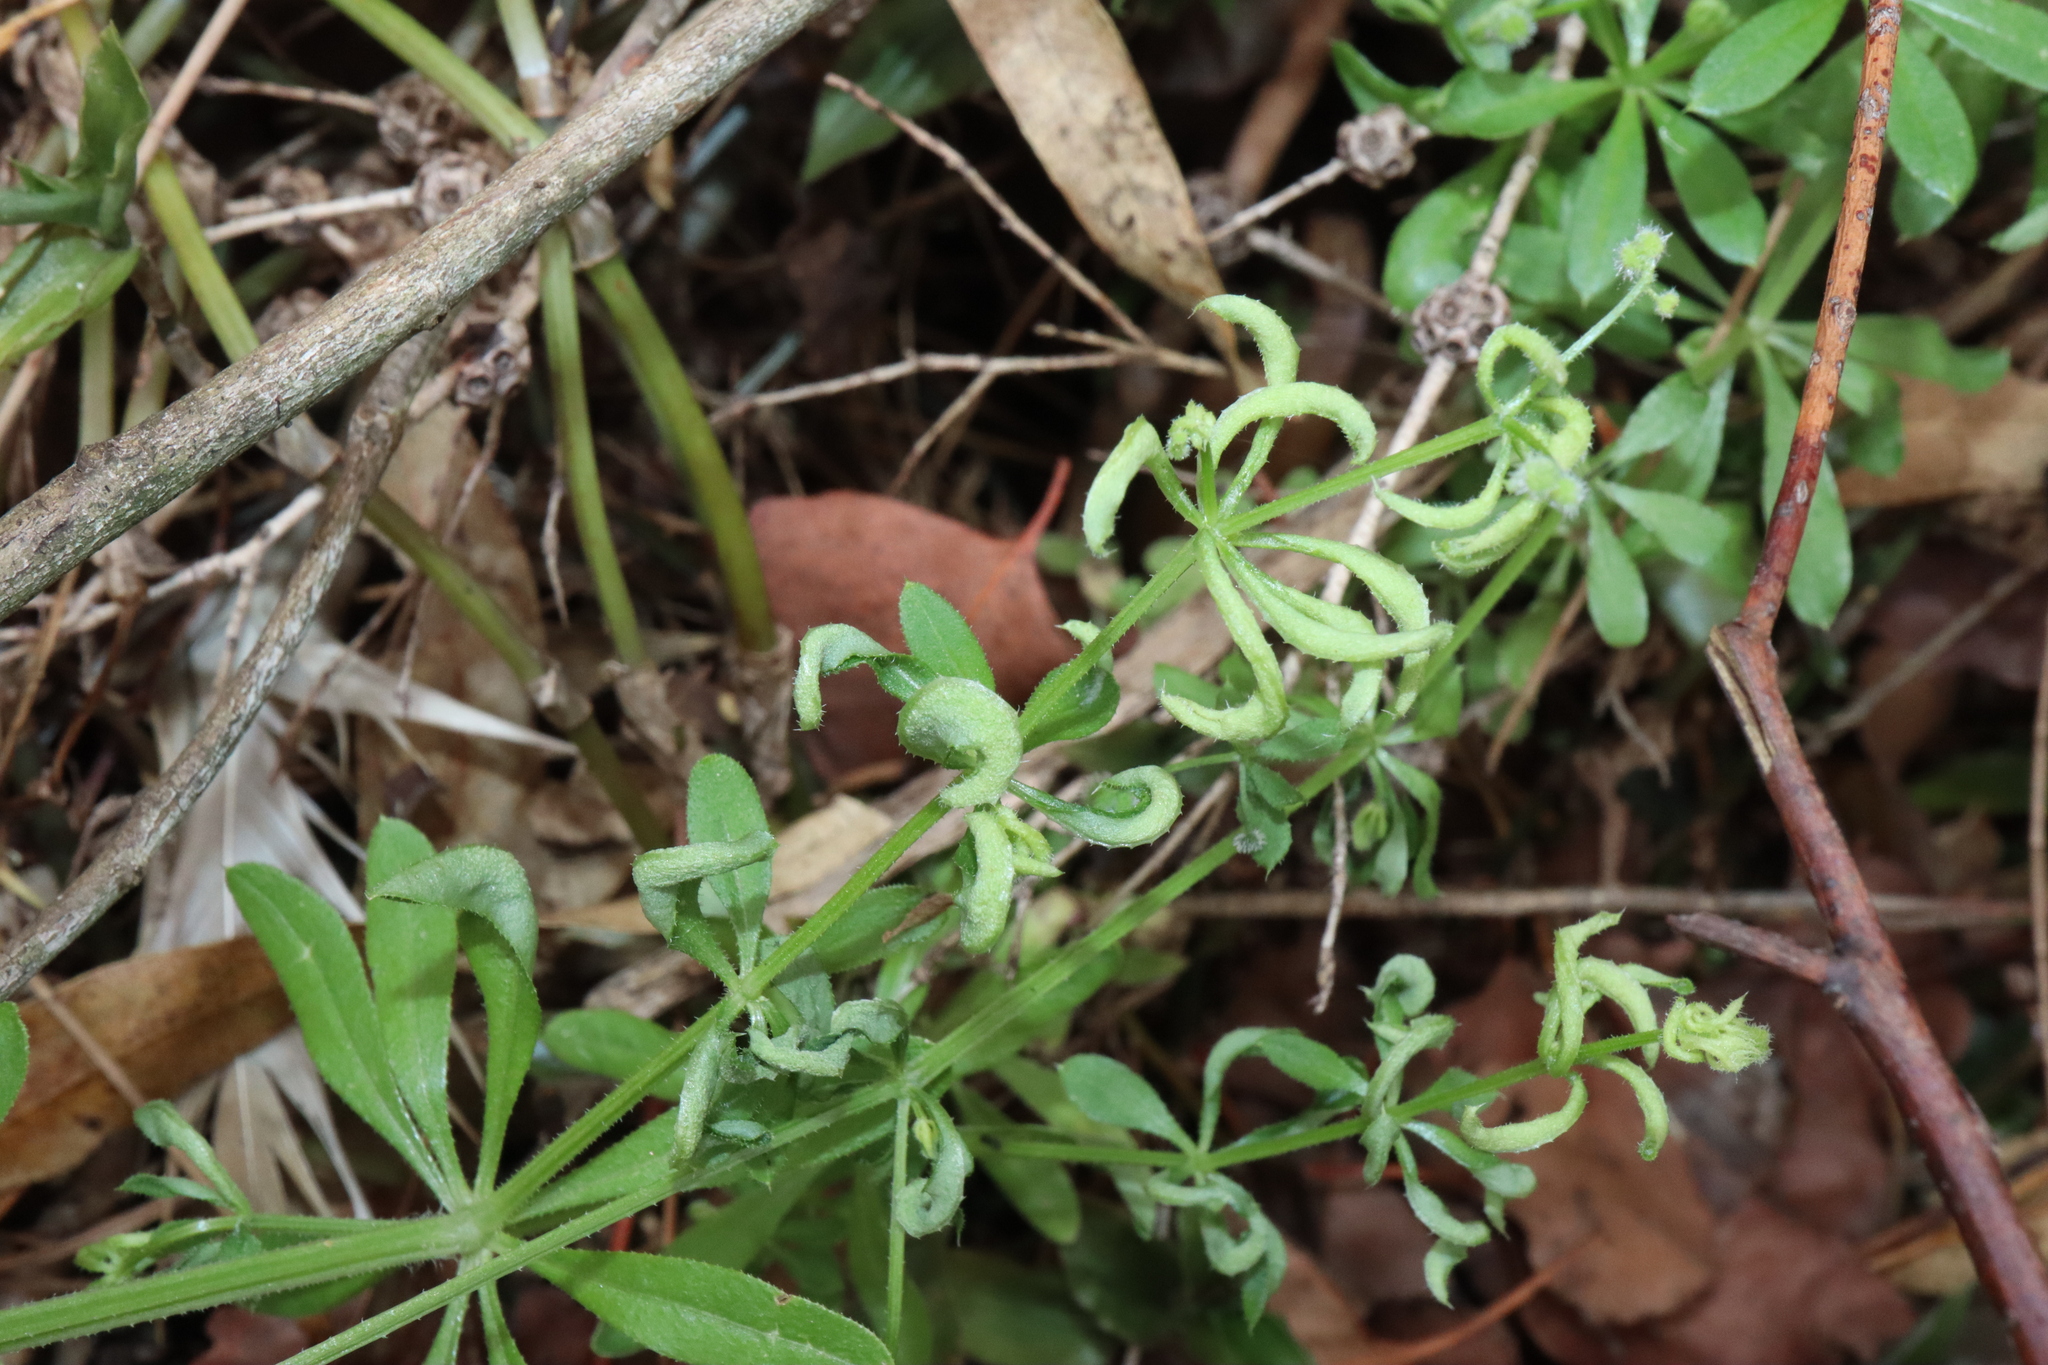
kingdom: Animalia
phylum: Arthropoda
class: Arachnida
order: Trombidiformes
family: Eriophyidae
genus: Cecidophyes
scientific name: Cecidophyes rouhollahi
